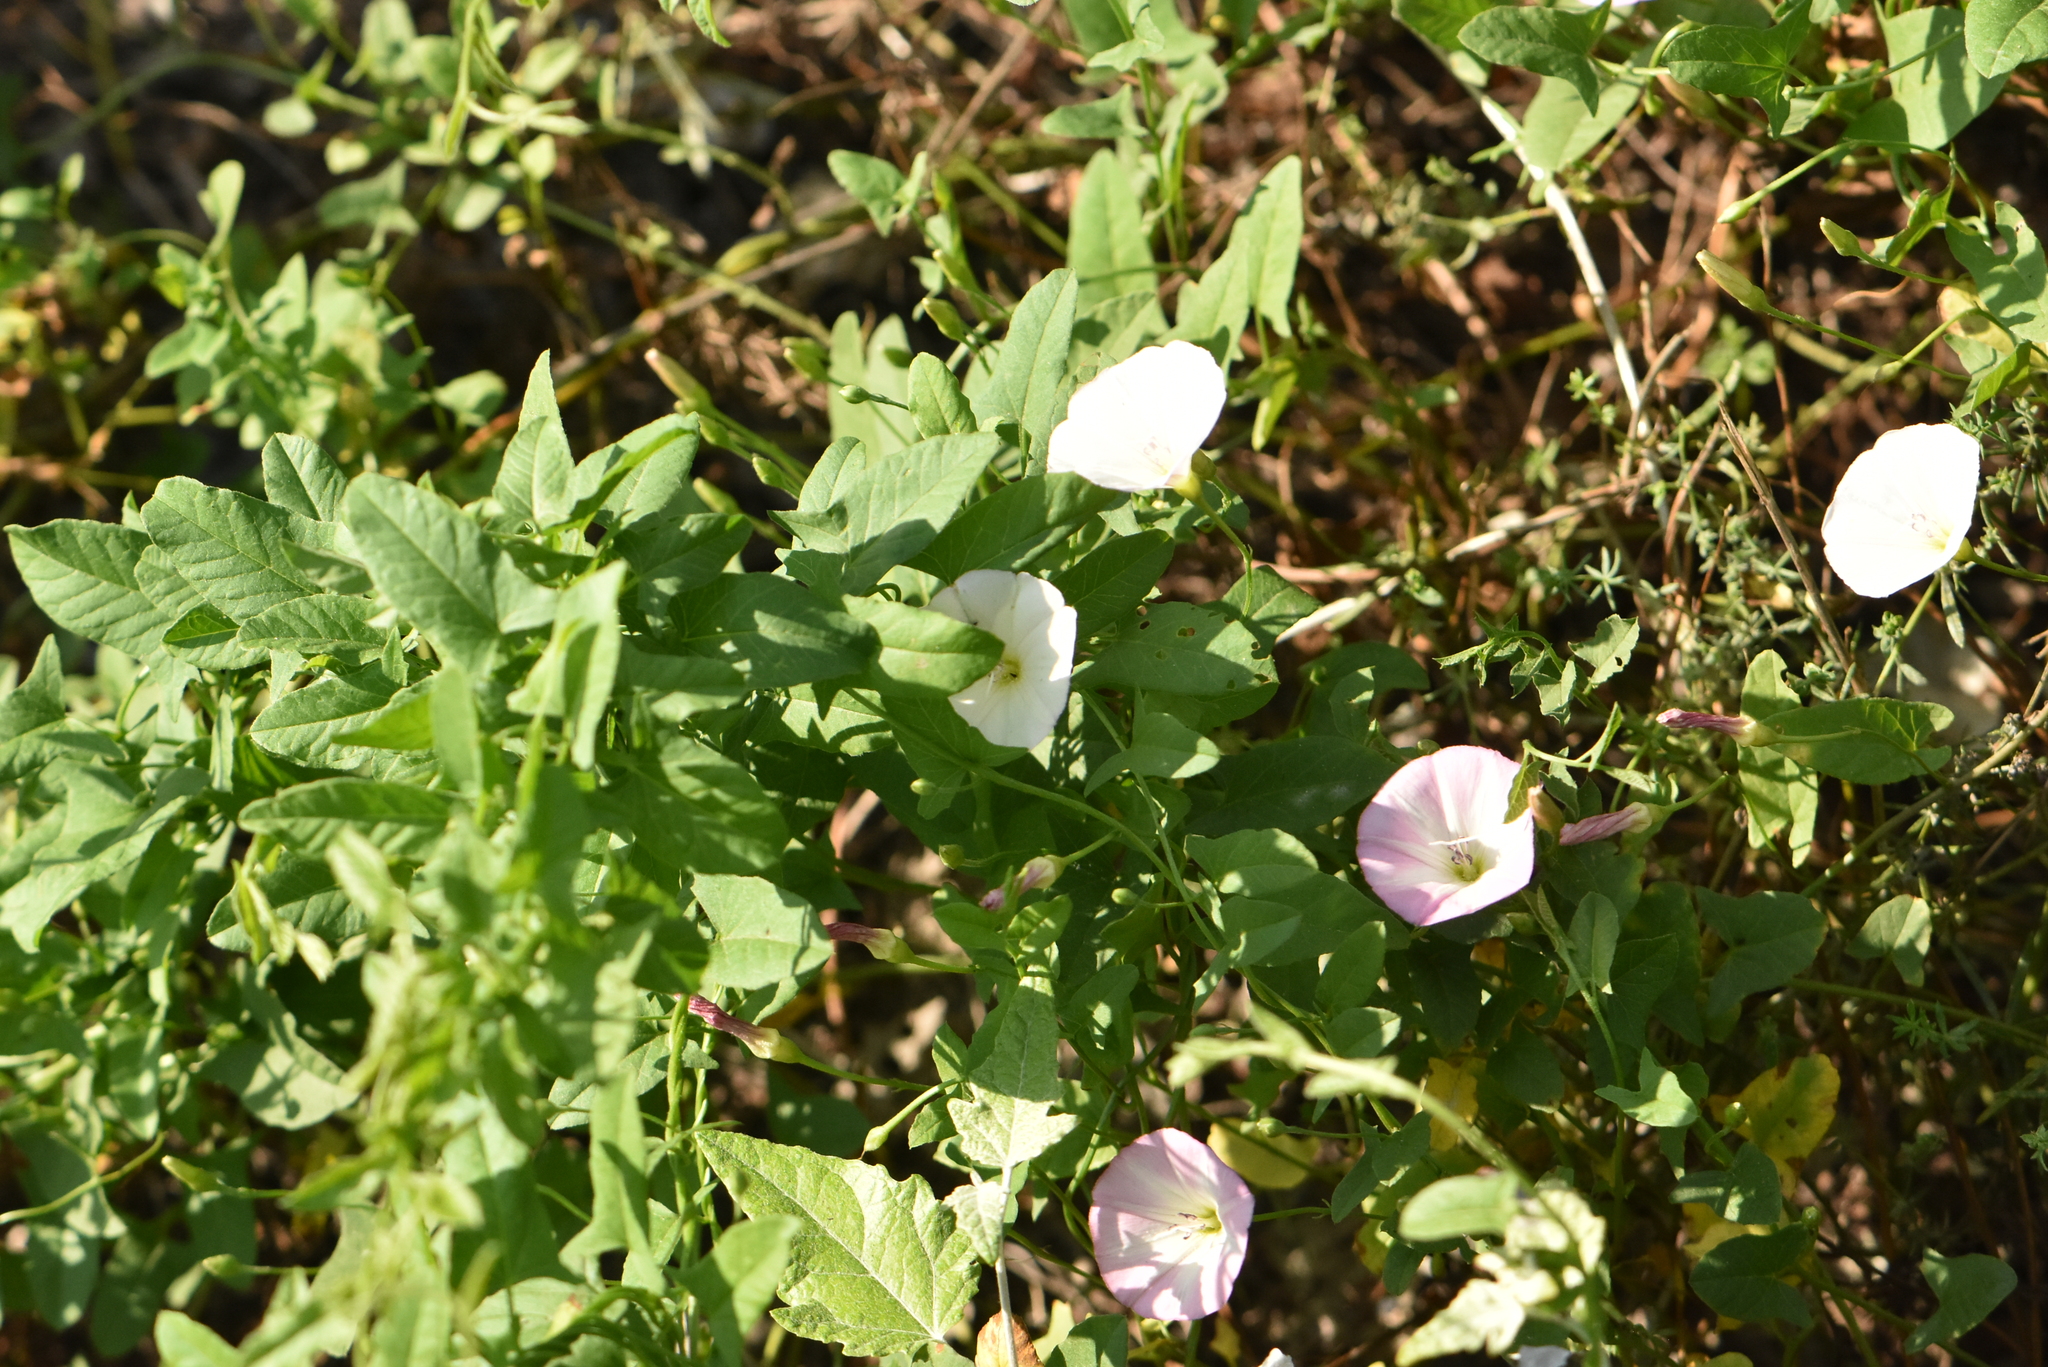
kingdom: Plantae
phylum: Tracheophyta
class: Magnoliopsida
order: Solanales
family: Convolvulaceae
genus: Convolvulus
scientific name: Convolvulus arvensis
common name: Field bindweed
